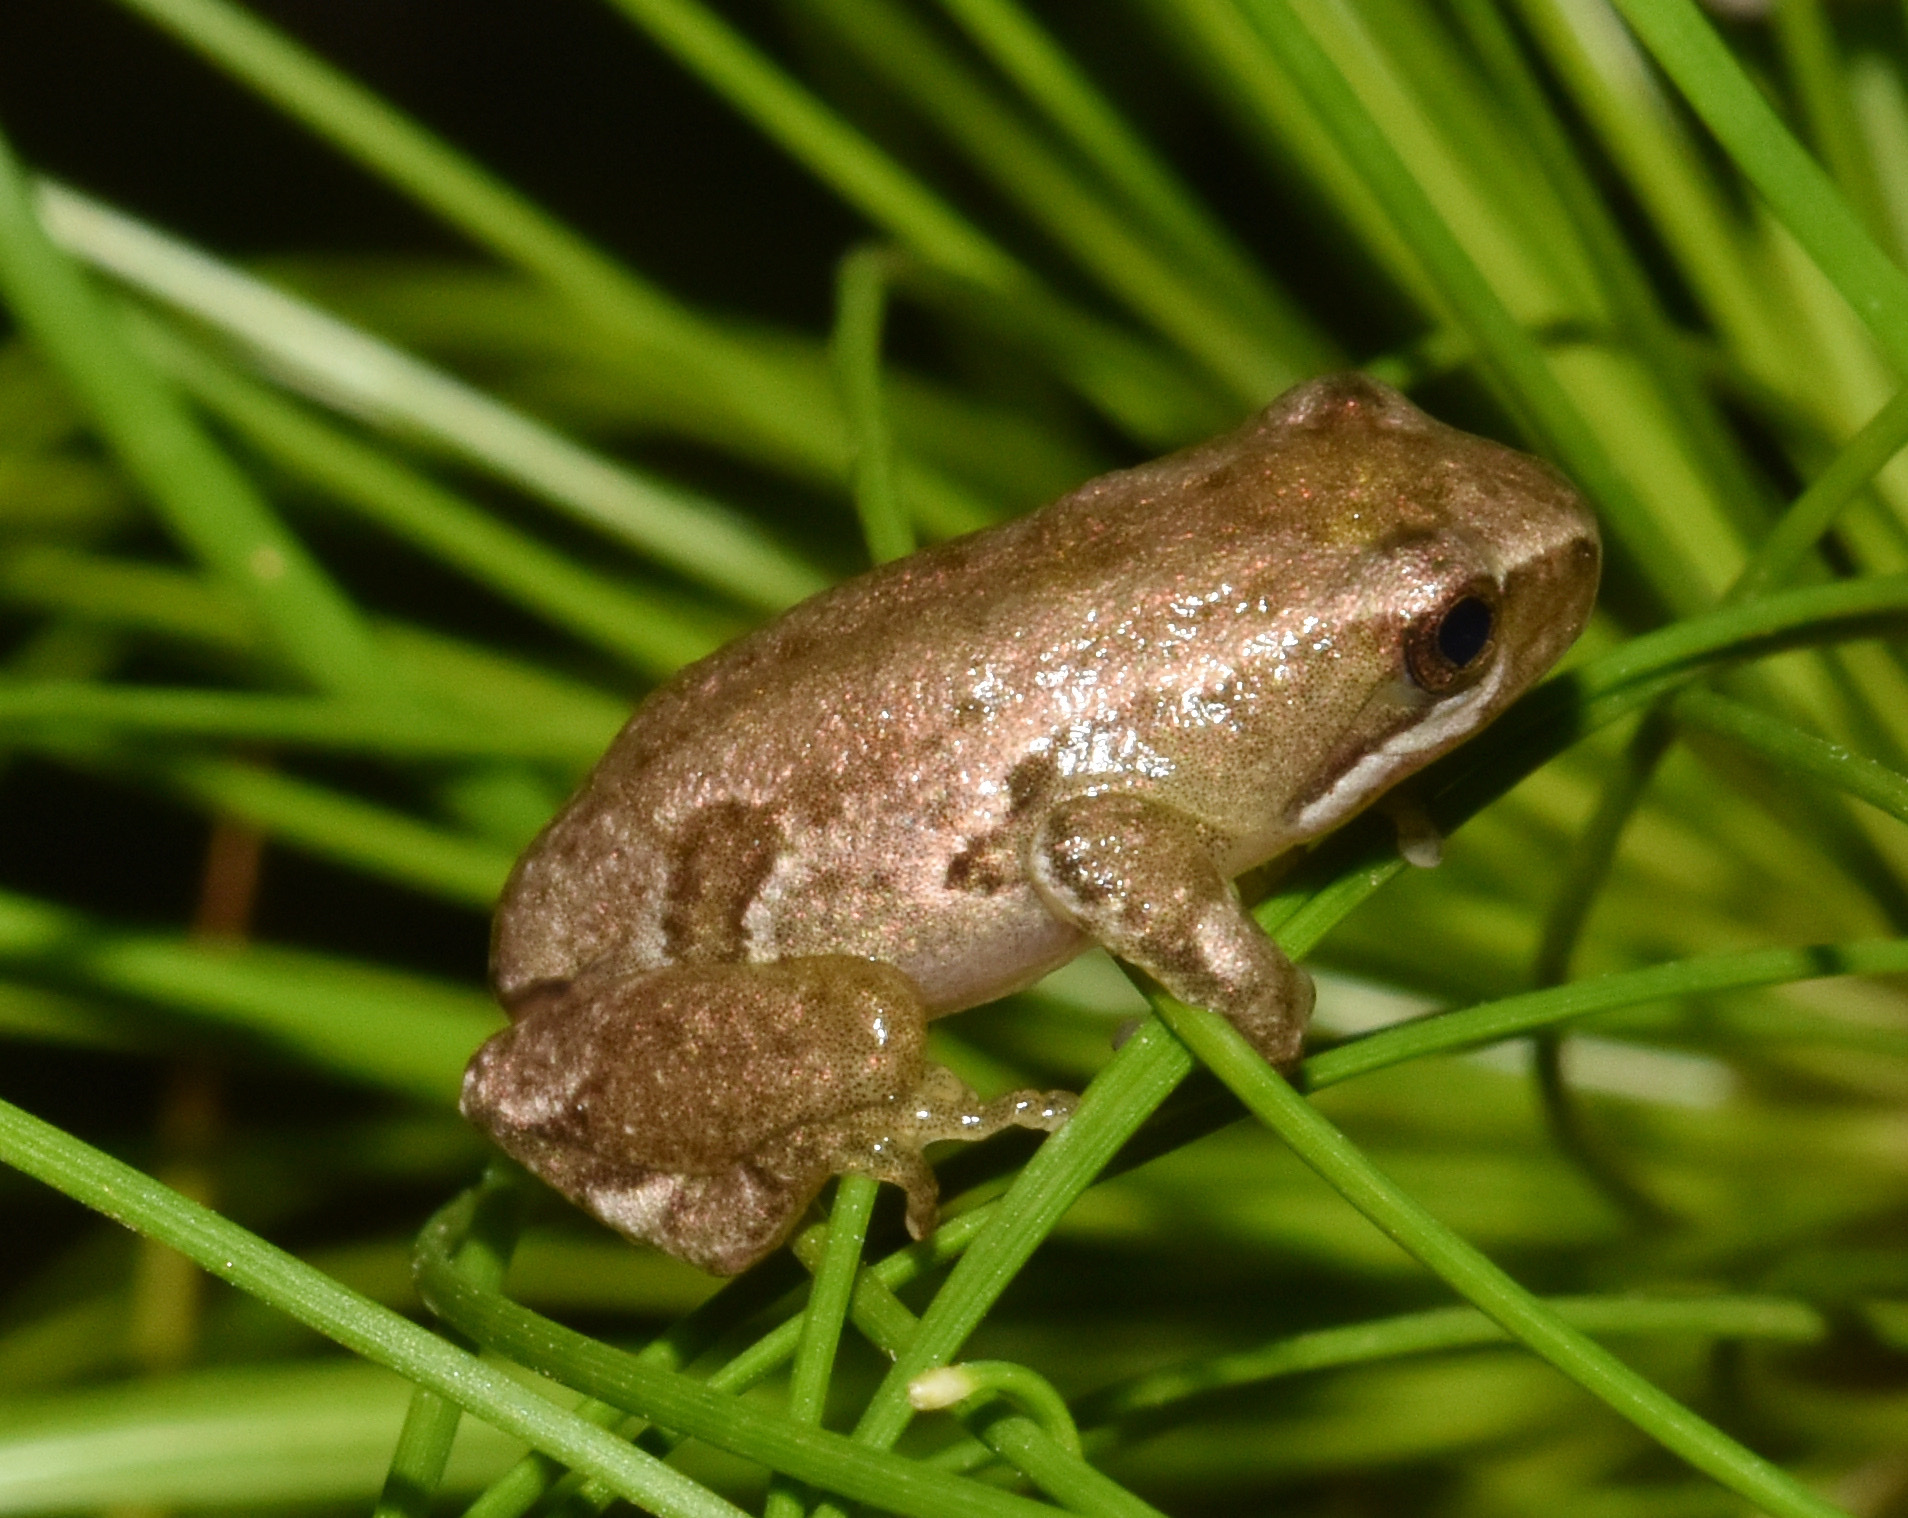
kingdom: Animalia
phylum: Chordata
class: Amphibia
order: Anura
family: Hyperoliidae
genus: Hyperolius
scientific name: Hyperolius marmoratus
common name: Painted reed frog
